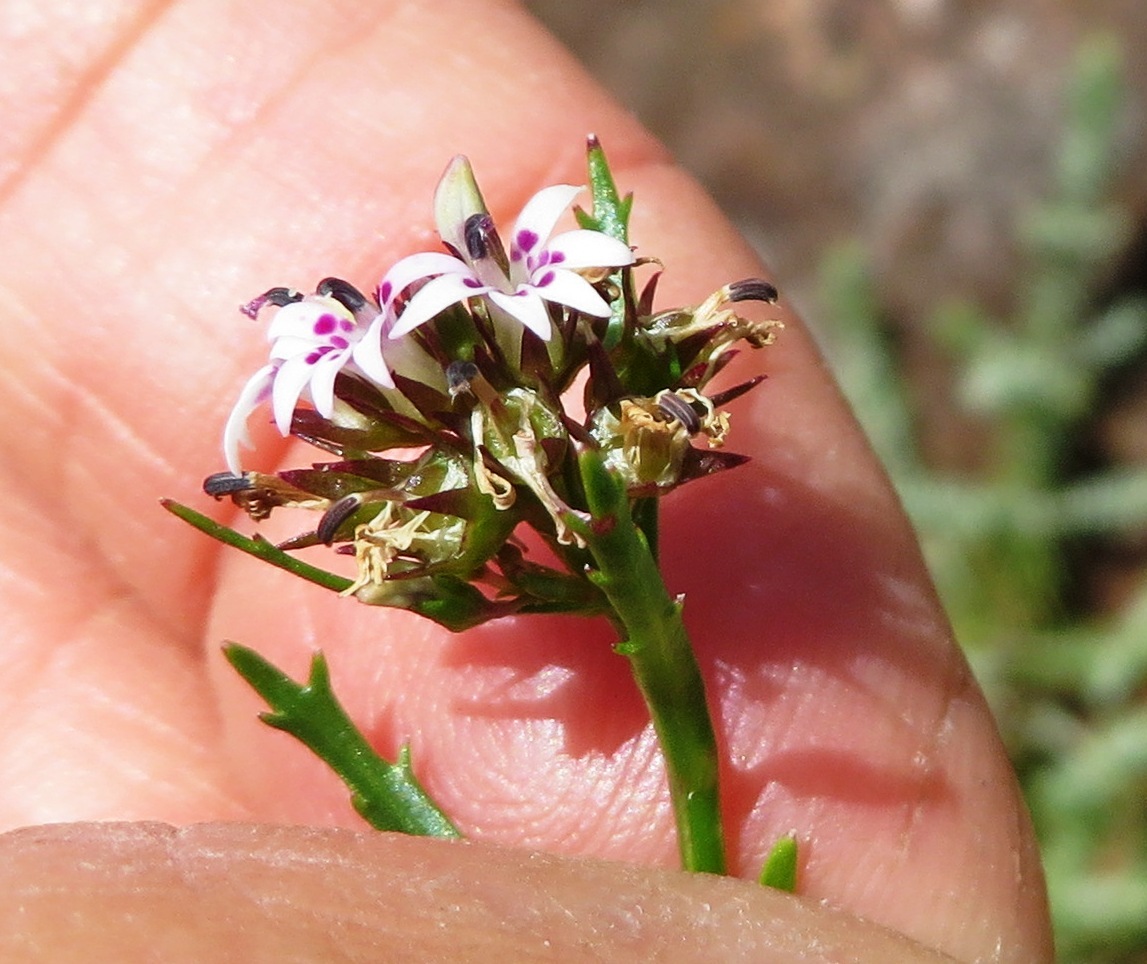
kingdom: Plantae
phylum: Tracheophyta
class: Magnoliopsida
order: Asterales
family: Campanulaceae
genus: Lobelia
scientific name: Lobelia jasionoides
